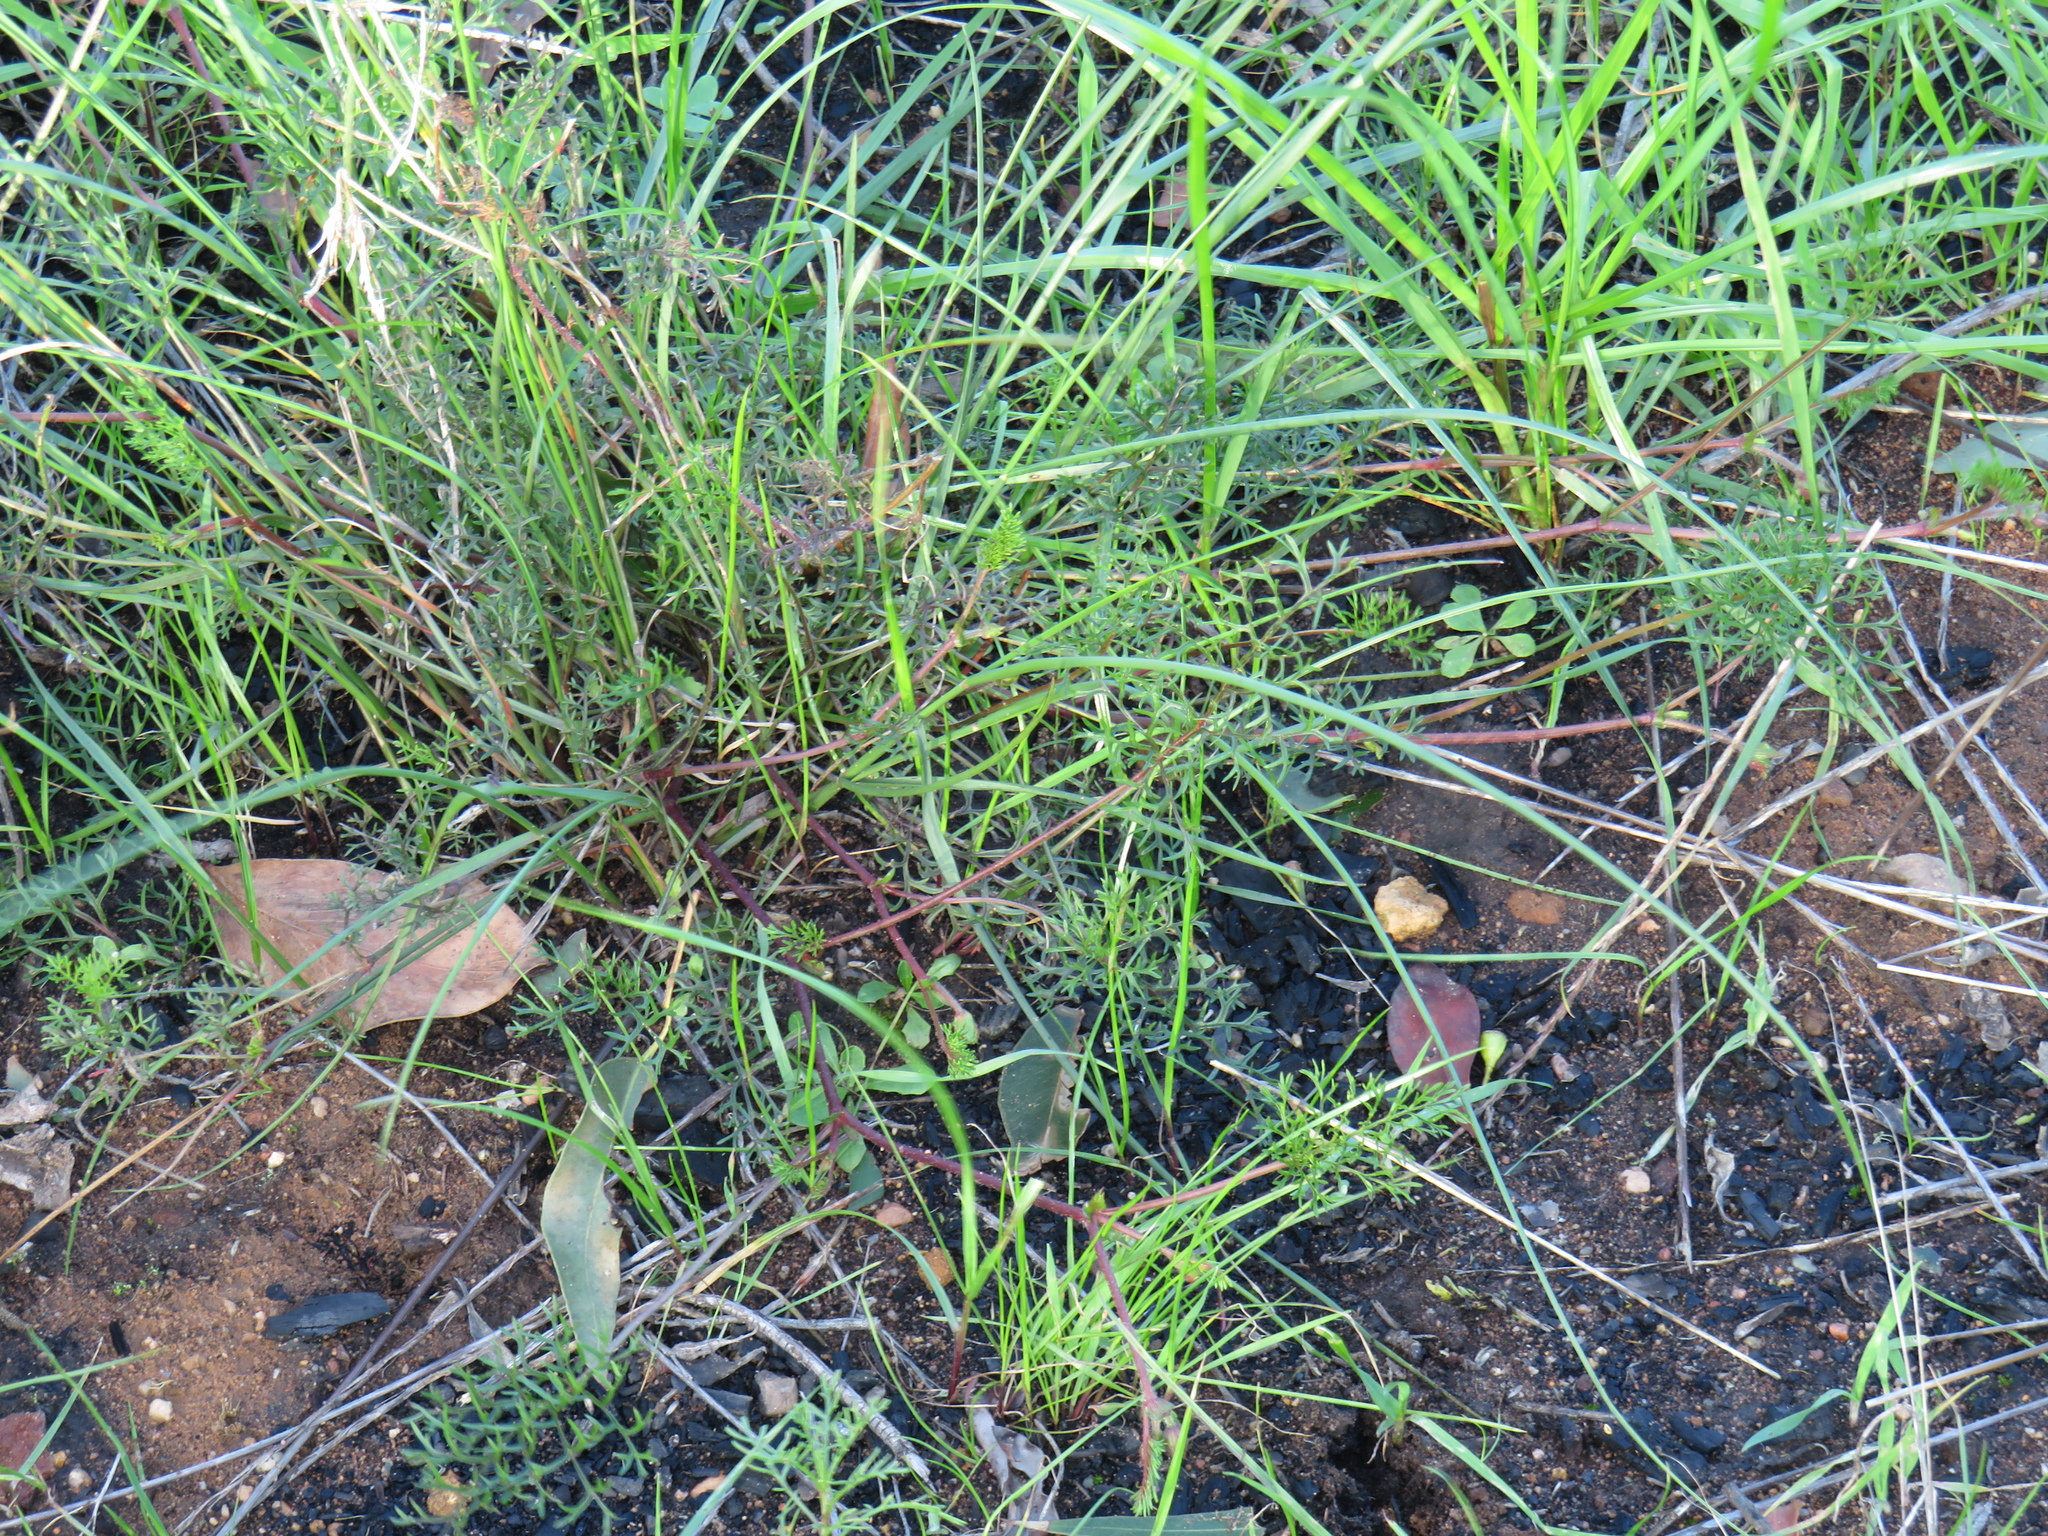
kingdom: Plantae
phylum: Tracheophyta
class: Magnoliopsida
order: Geraniales
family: Geraniaceae
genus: Pelargonium
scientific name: Pelargonium myrrhifolium
